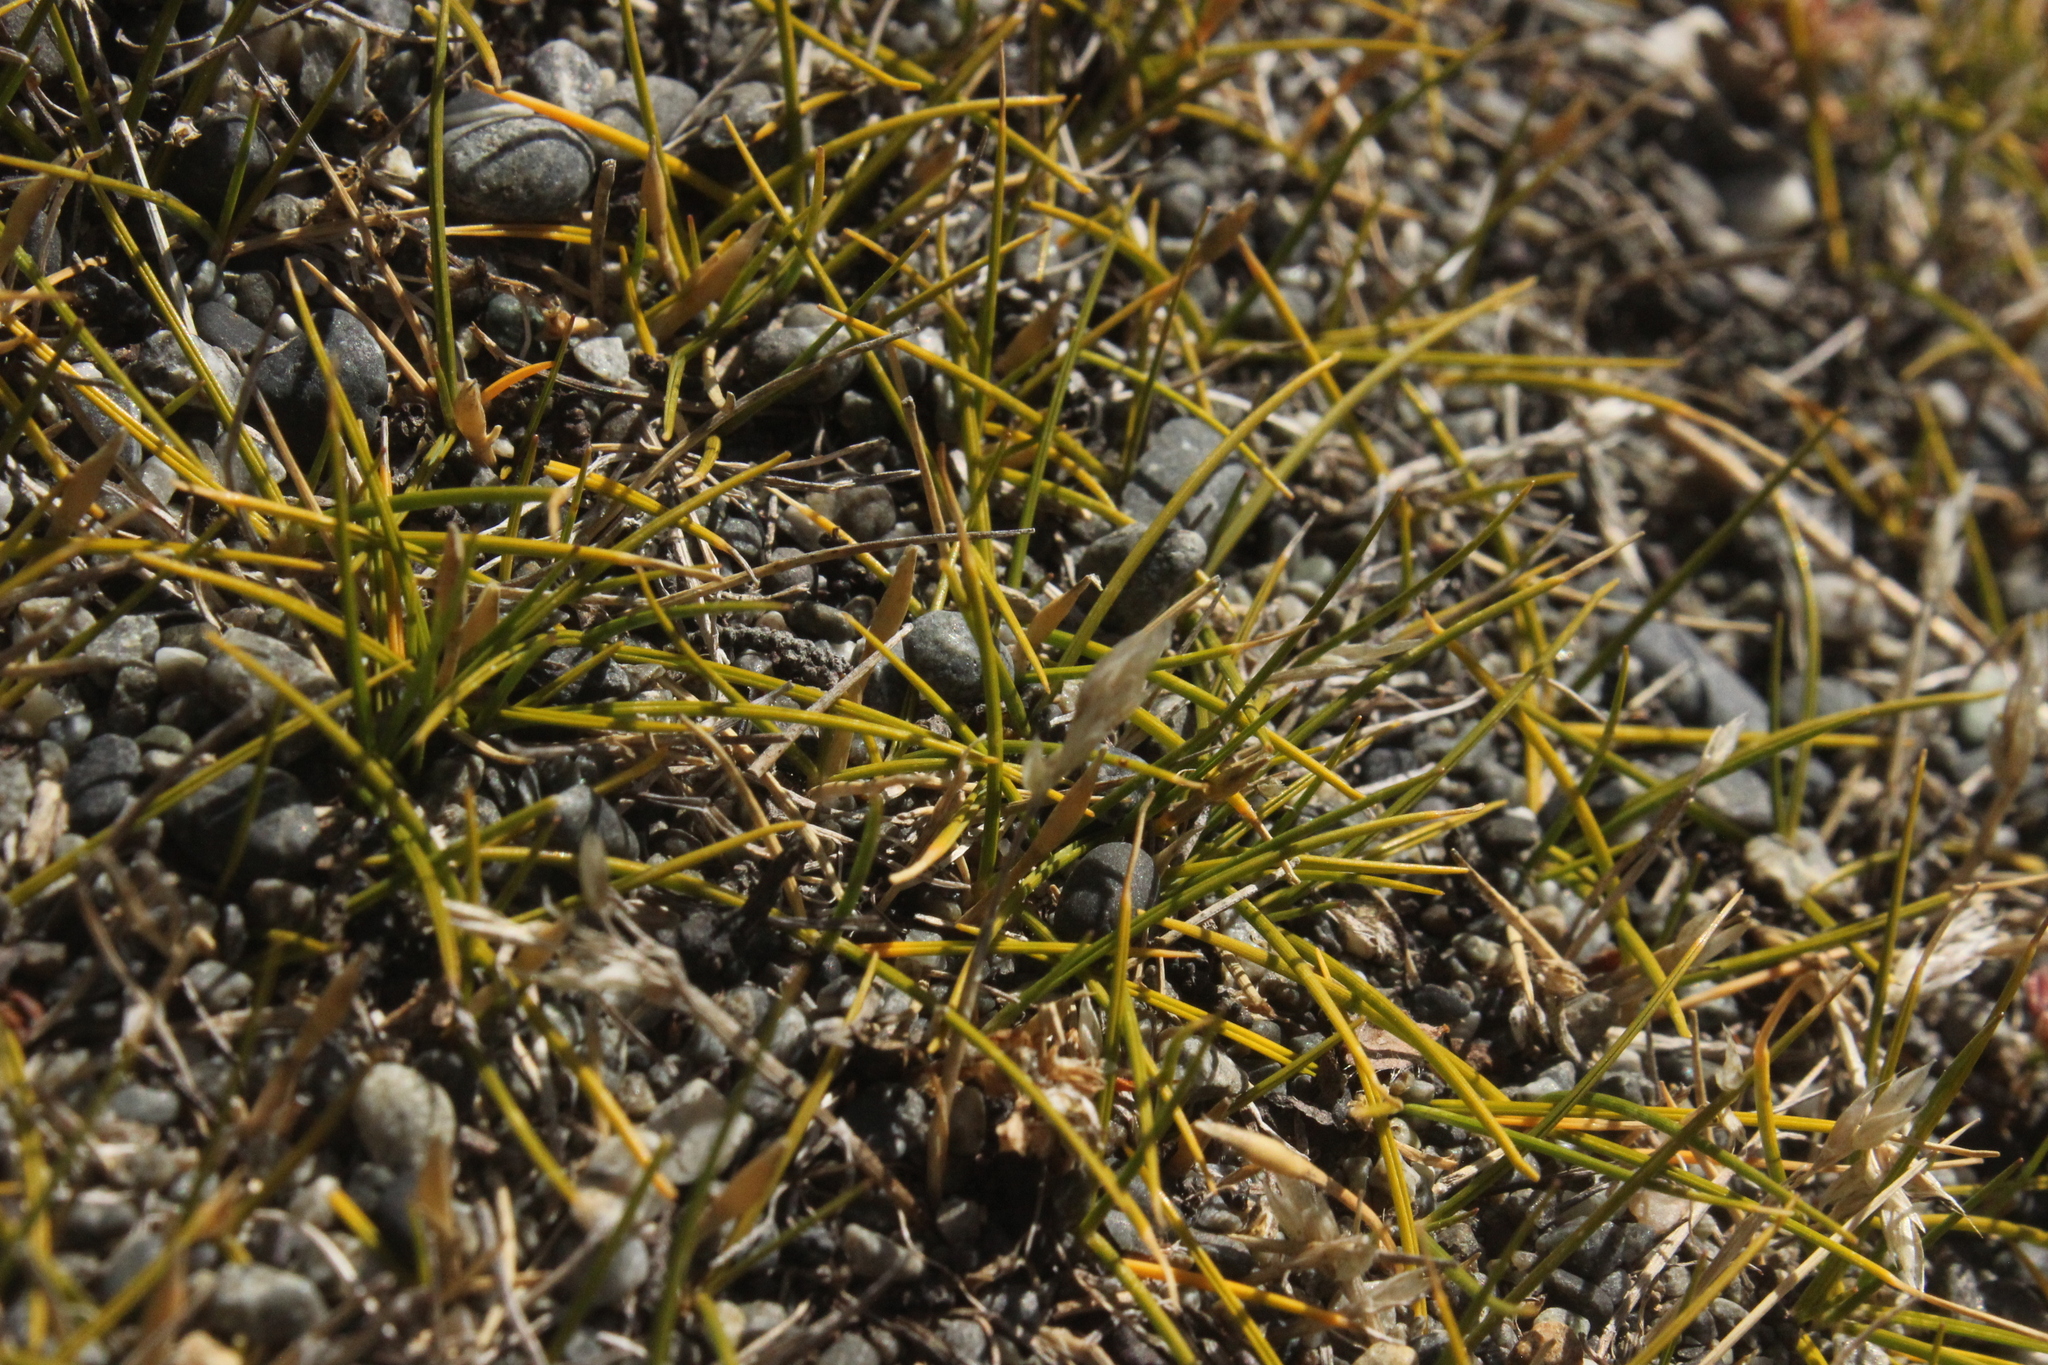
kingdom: Plantae
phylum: Tracheophyta
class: Liliopsida
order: Poales
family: Poaceae
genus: Zoysia
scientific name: Zoysia minima
